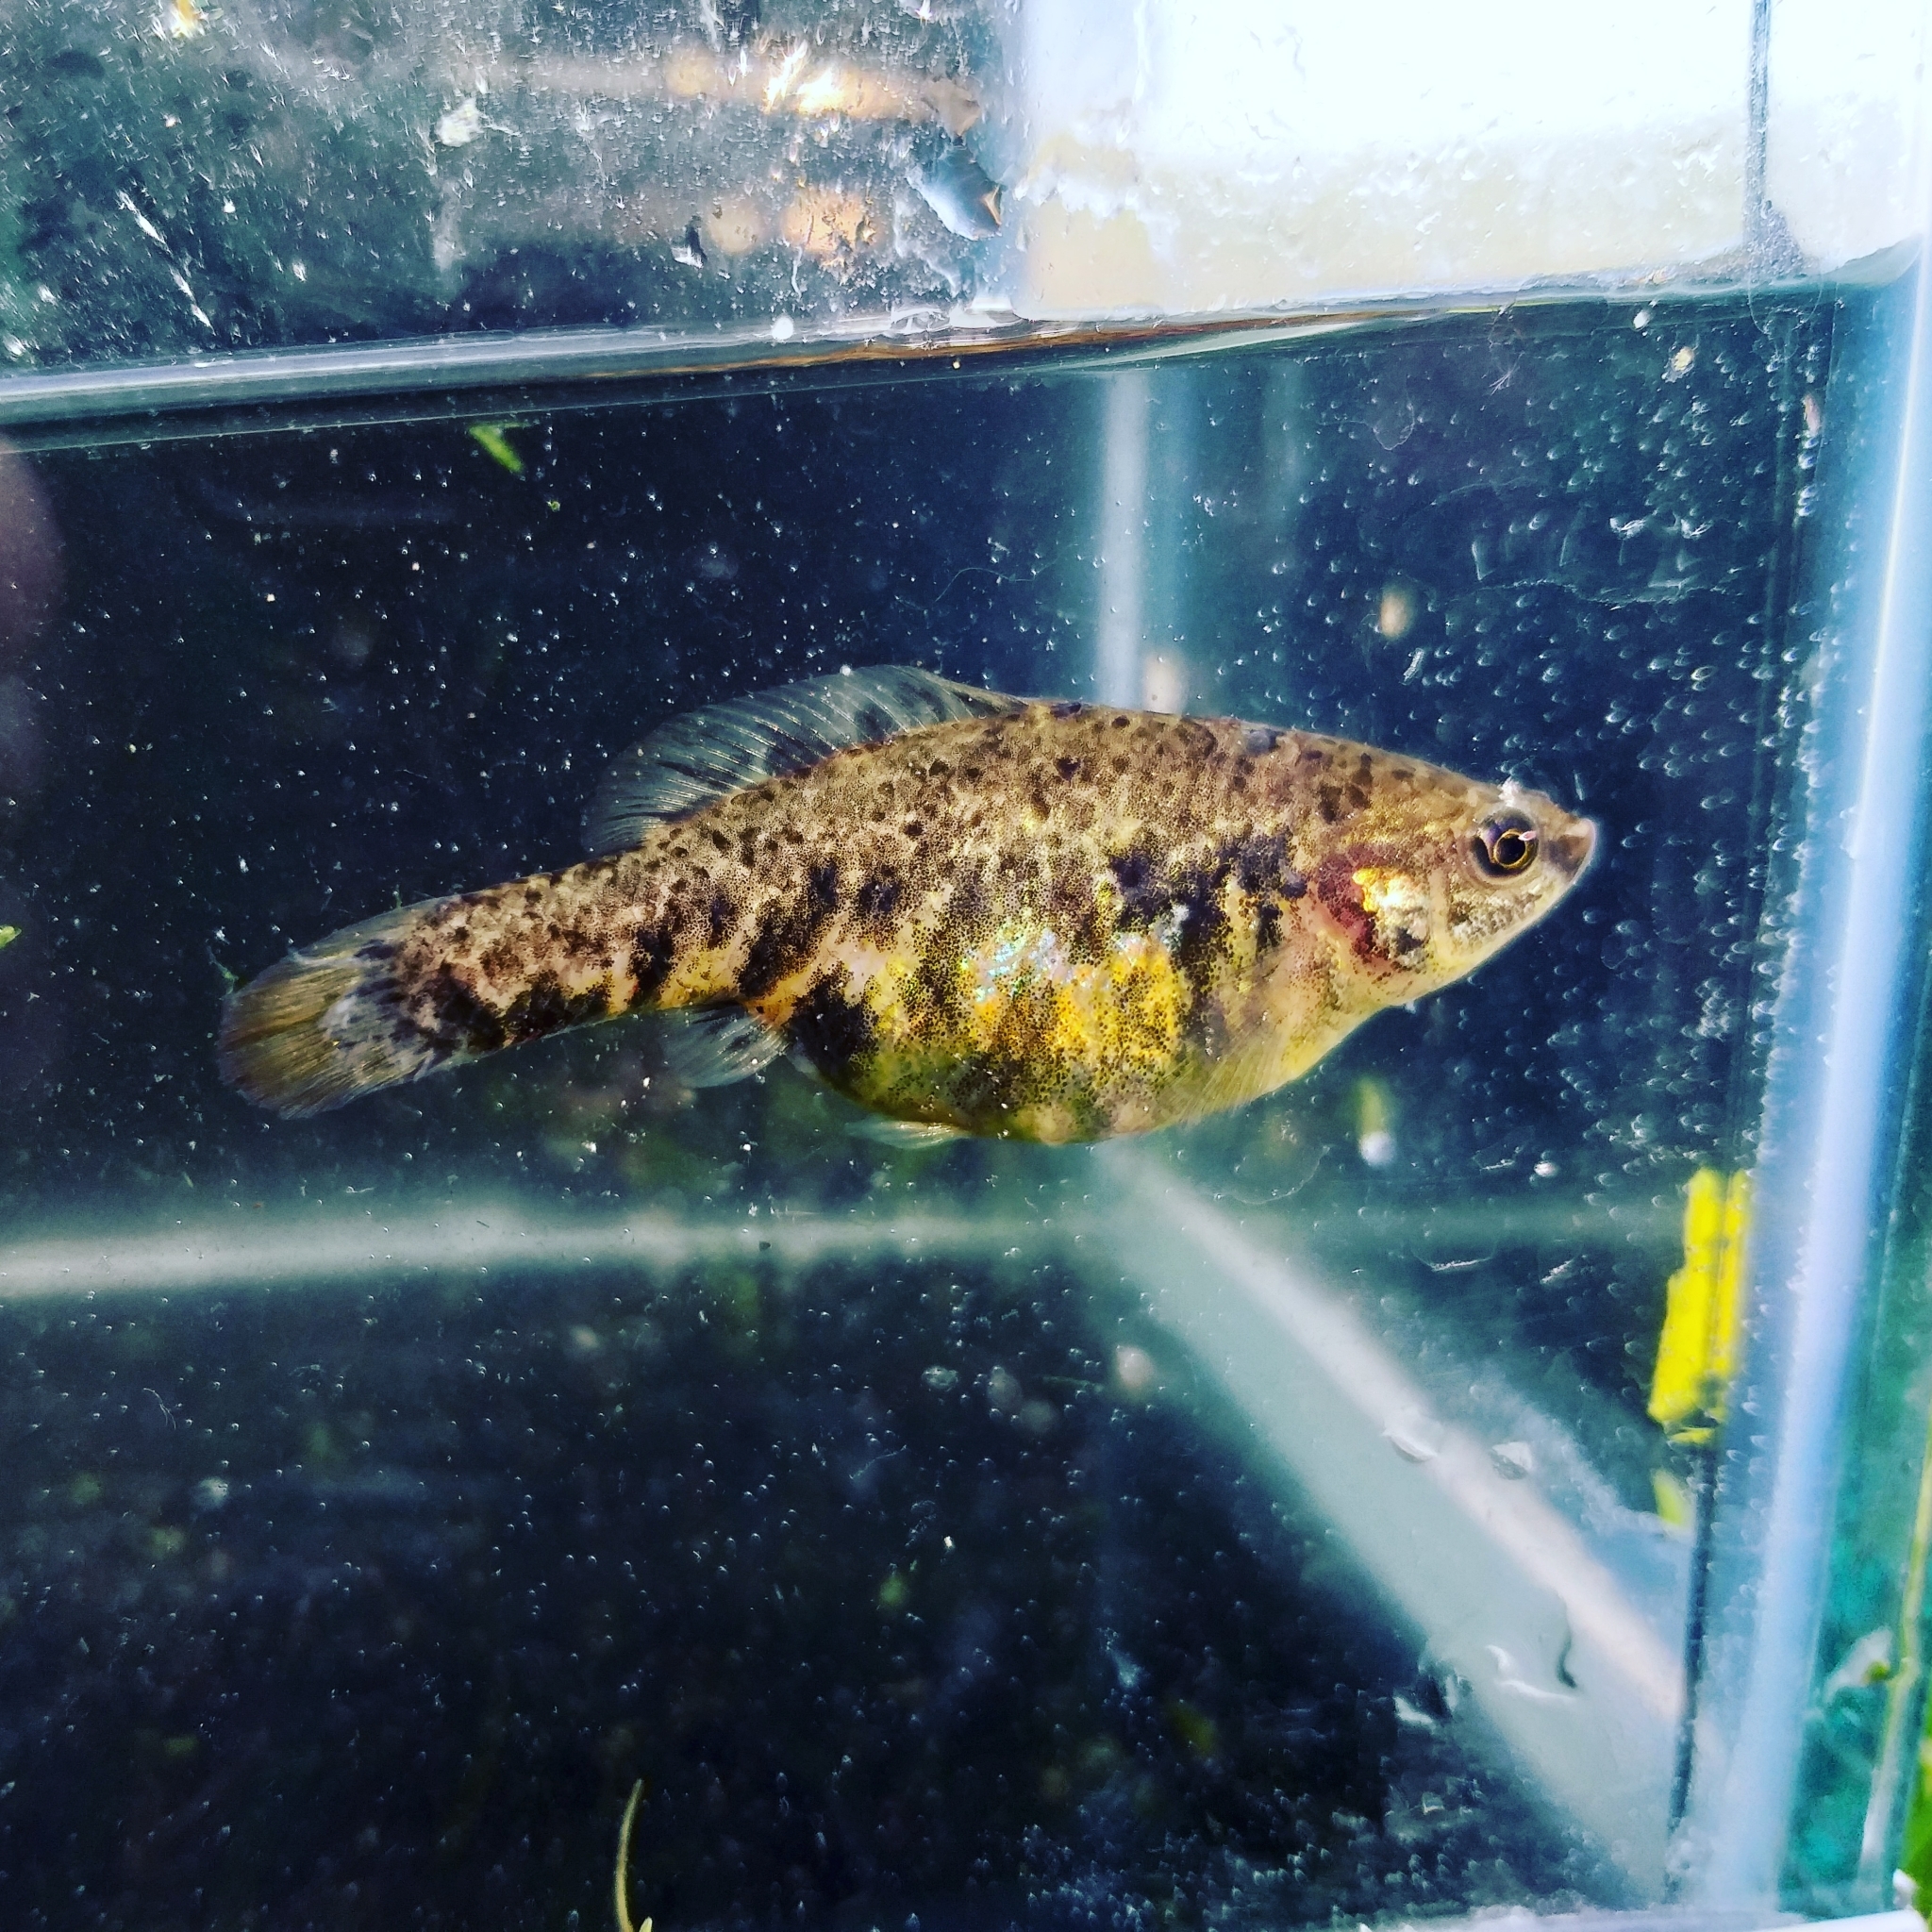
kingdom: Animalia
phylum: Chordata
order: Cyprinodontiformes
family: Goodeidae
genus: Hubbsina
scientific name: Hubbsina turneri
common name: Highland splitfin
